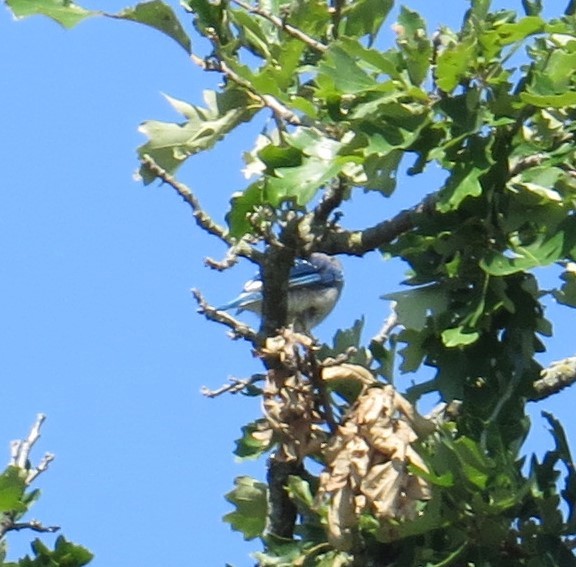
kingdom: Animalia
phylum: Chordata
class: Aves
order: Passeriformes
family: Corvidae
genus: Cyanocitta
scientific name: Cyanocitta cristata
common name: Blue jay
